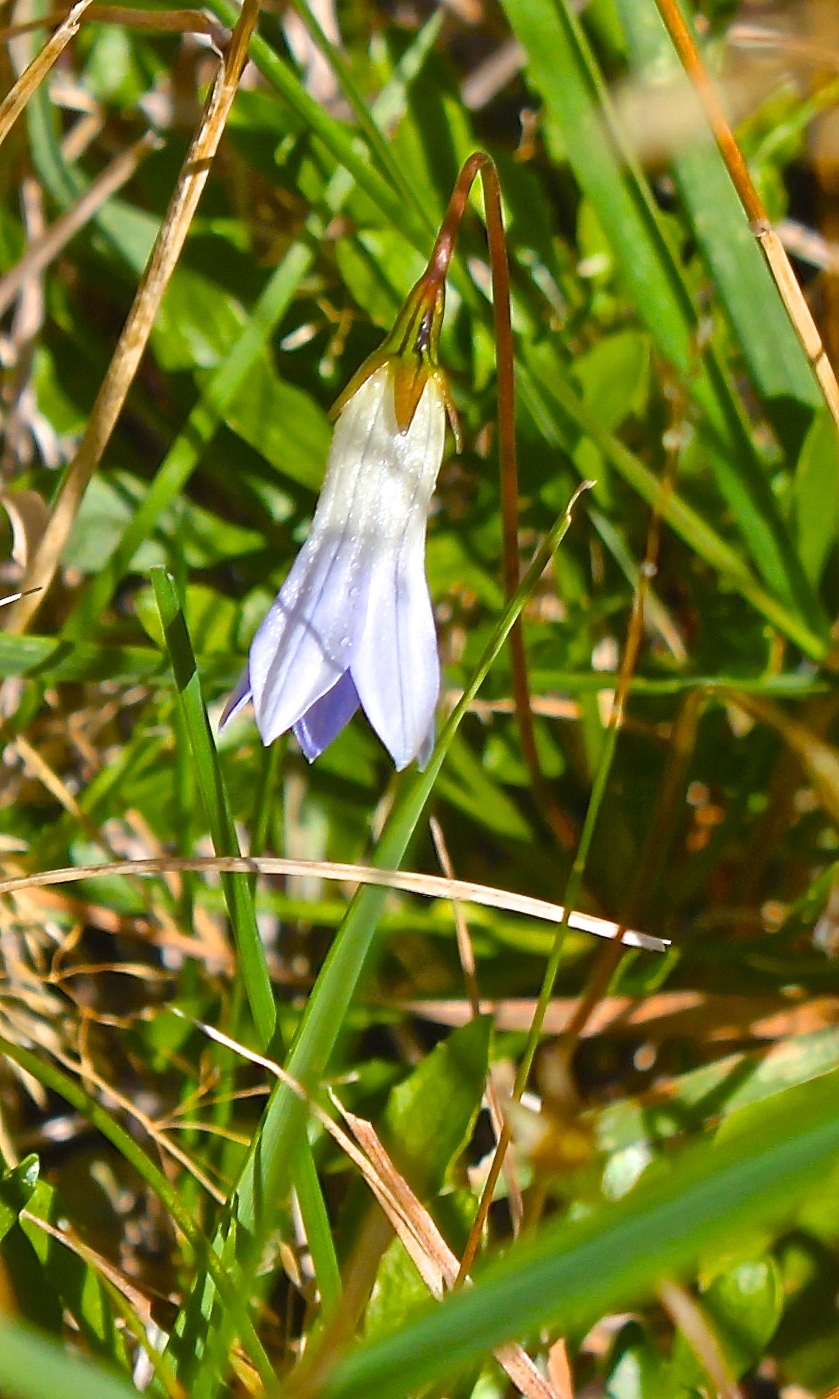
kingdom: Plantae
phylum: Tracheophyta
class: Magnoliopsida
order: Asterales
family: Campanulaceae
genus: Wahlenbergia
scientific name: Wahlenbergia albomarginata
